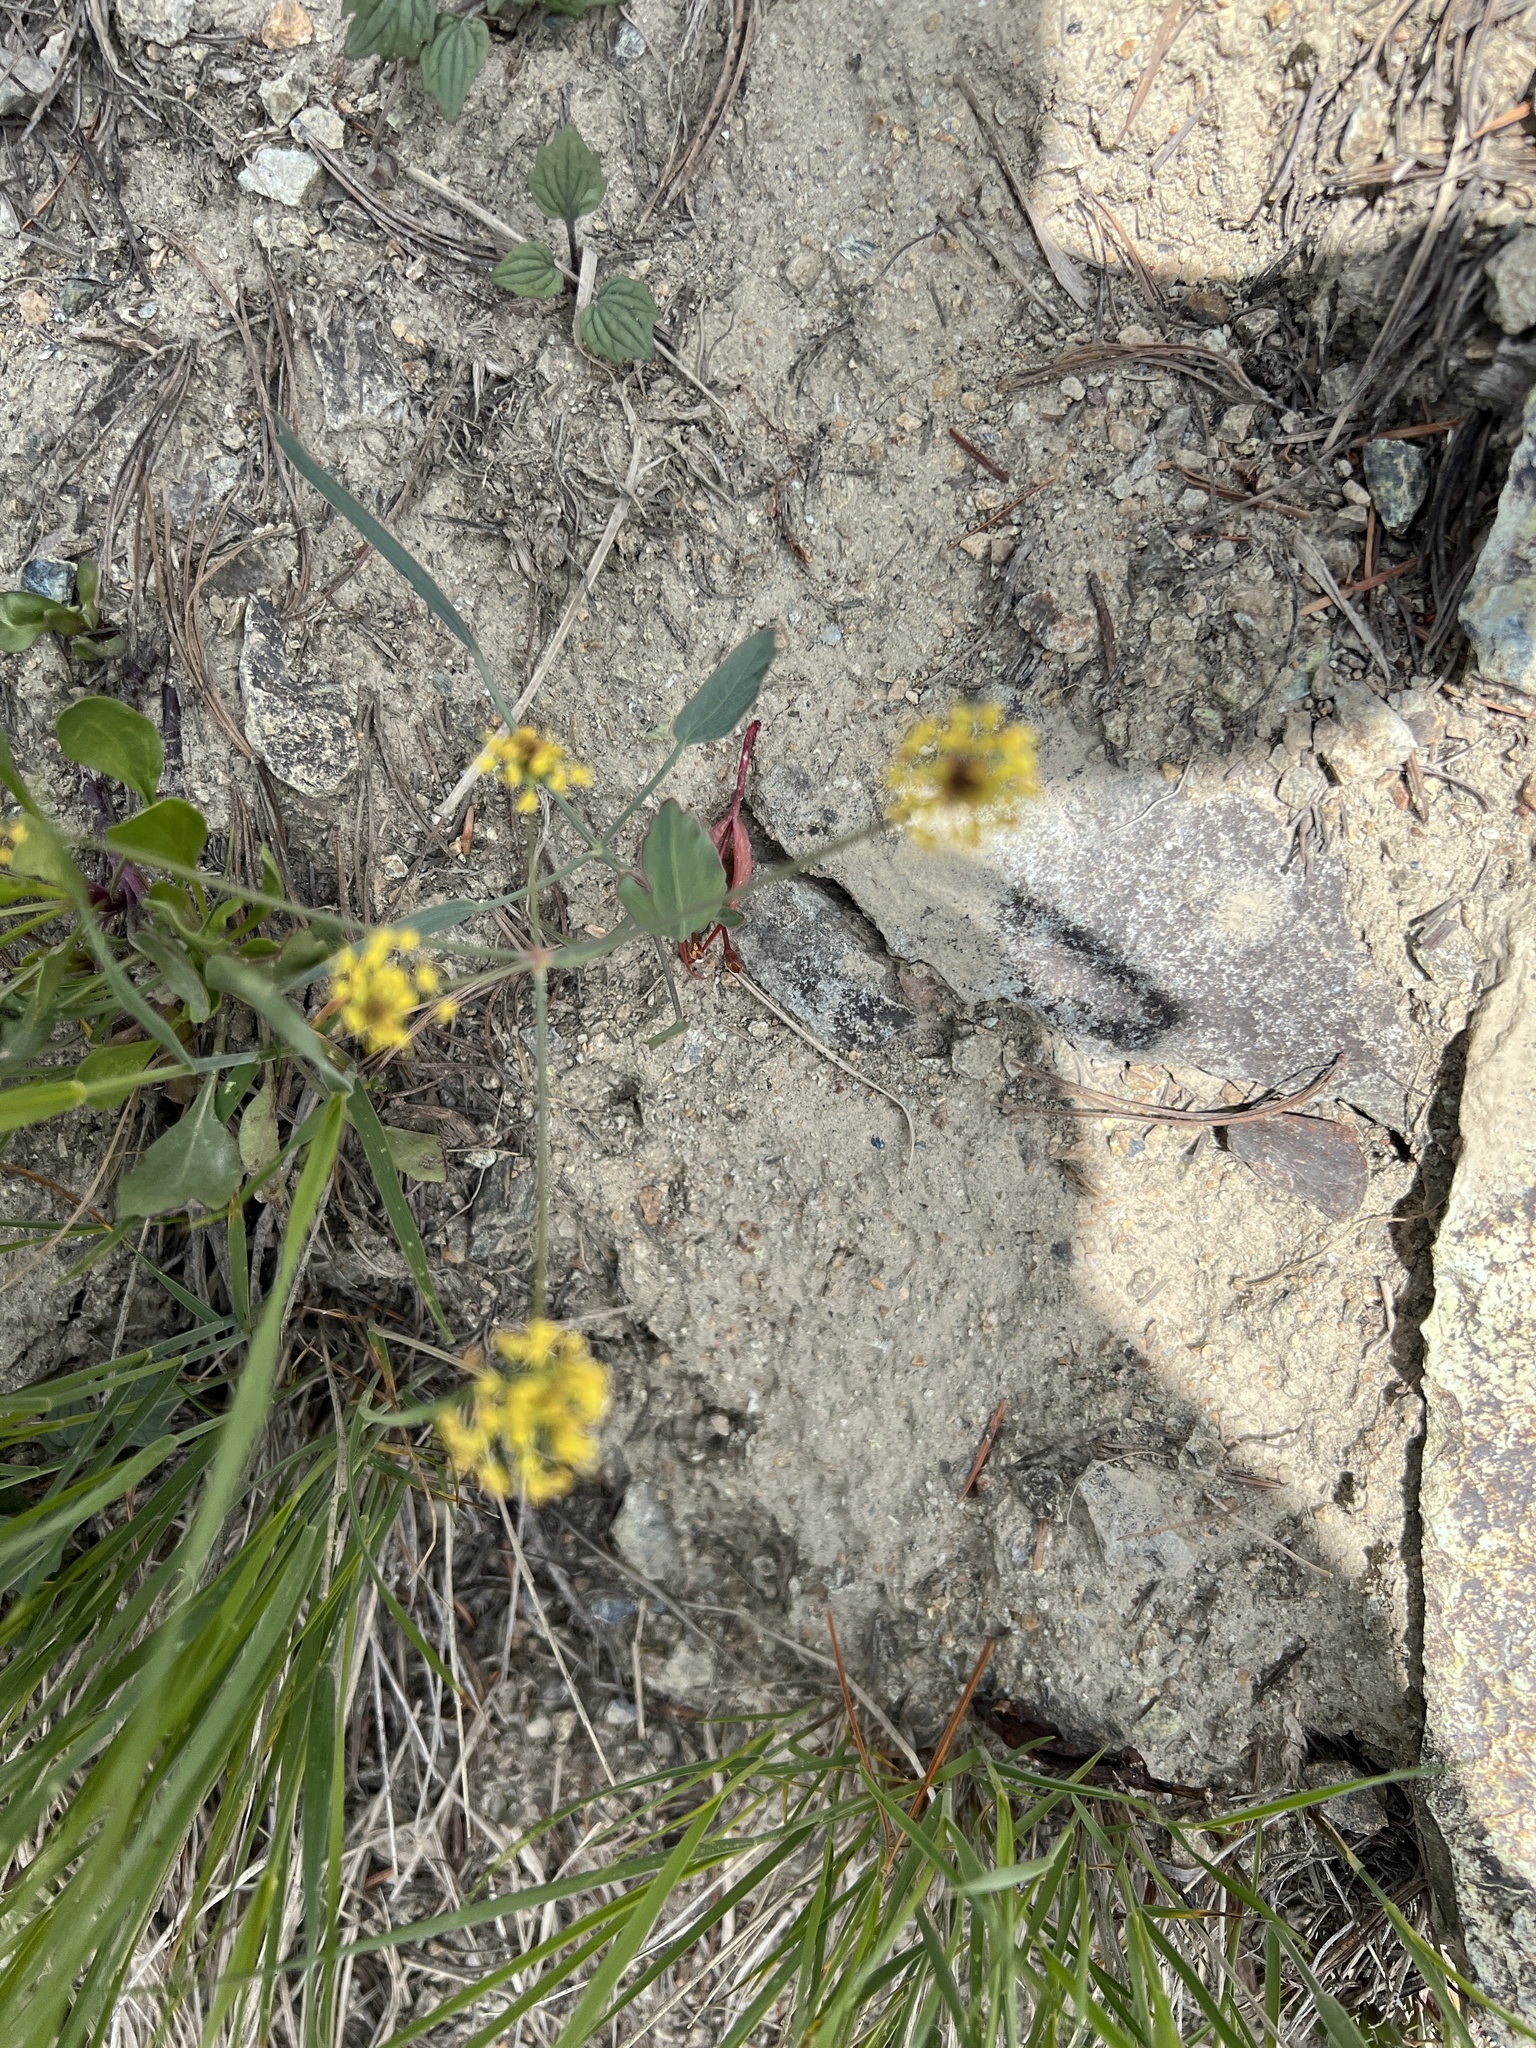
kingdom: Plantae
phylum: Tracheophyta
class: Magnoliopsida
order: Apiales
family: Apiaceae
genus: Lomatium
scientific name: Lomatium nudicaule
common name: Pestle lomatium
